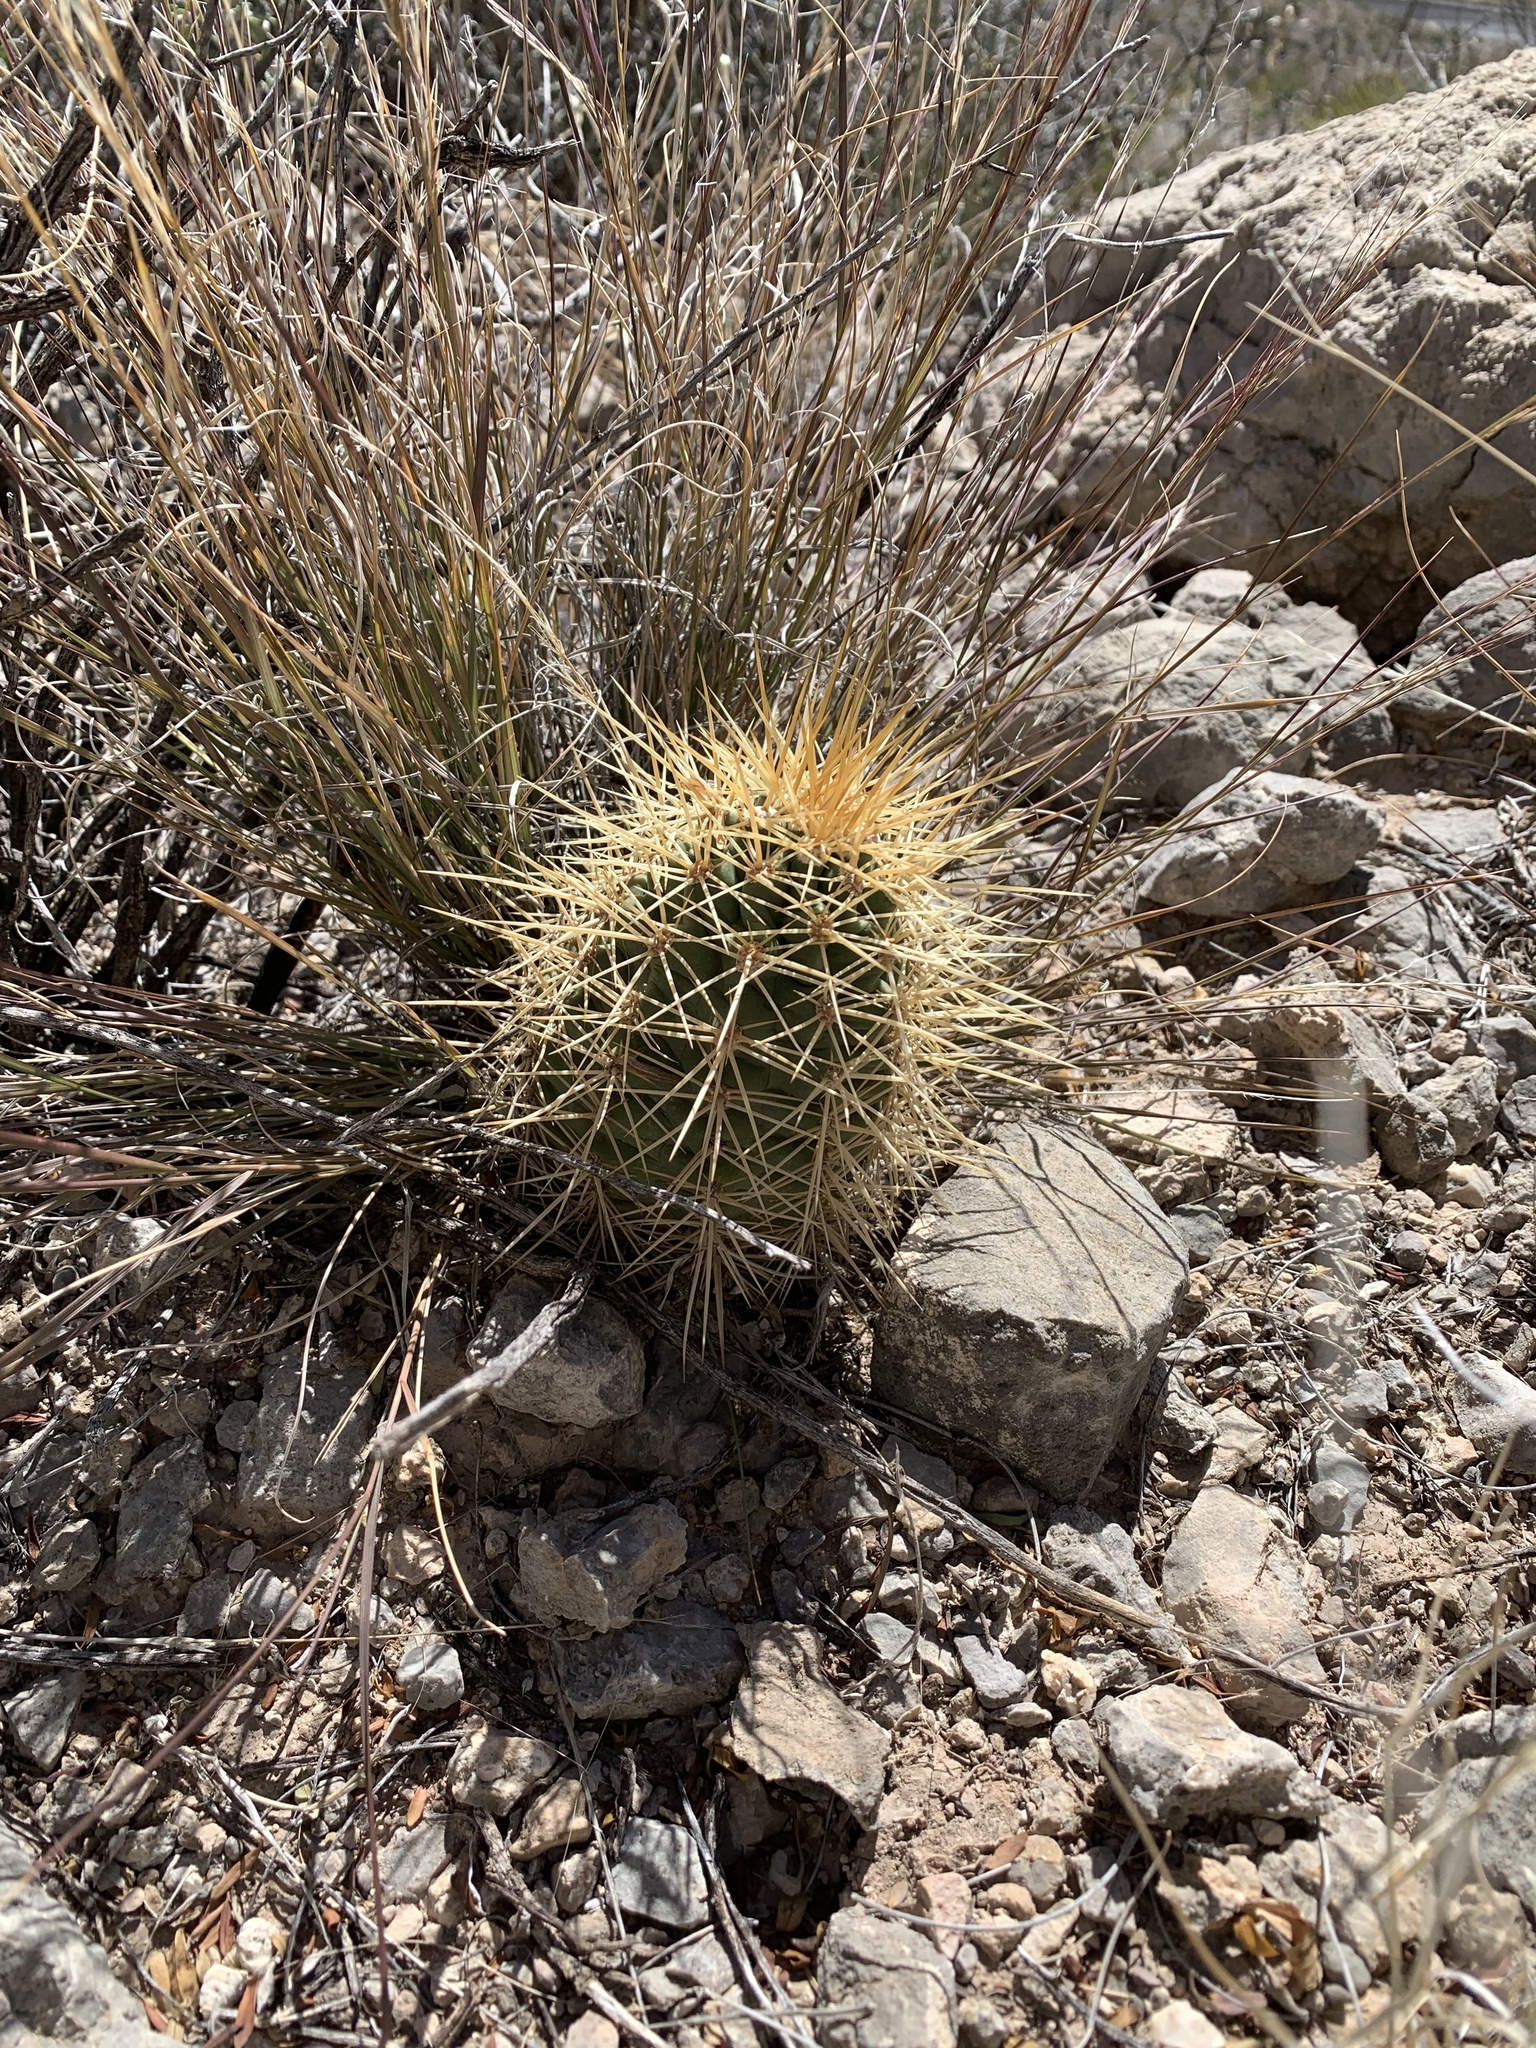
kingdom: Plantae
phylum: Tracheophyta
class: Magnoliopsida
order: Caryophyllales
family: Cactaceae
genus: Echinocereus
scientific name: Echinocereus coccineus
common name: Scarlet hedgehog cactus
